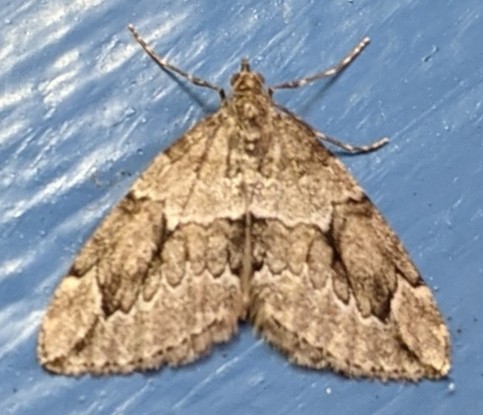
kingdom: Animalia
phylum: Arthropoda
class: Insecta
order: Lepidoptera
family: Geometridae
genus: Thera
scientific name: Thera juniperata
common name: Juniper carpet
